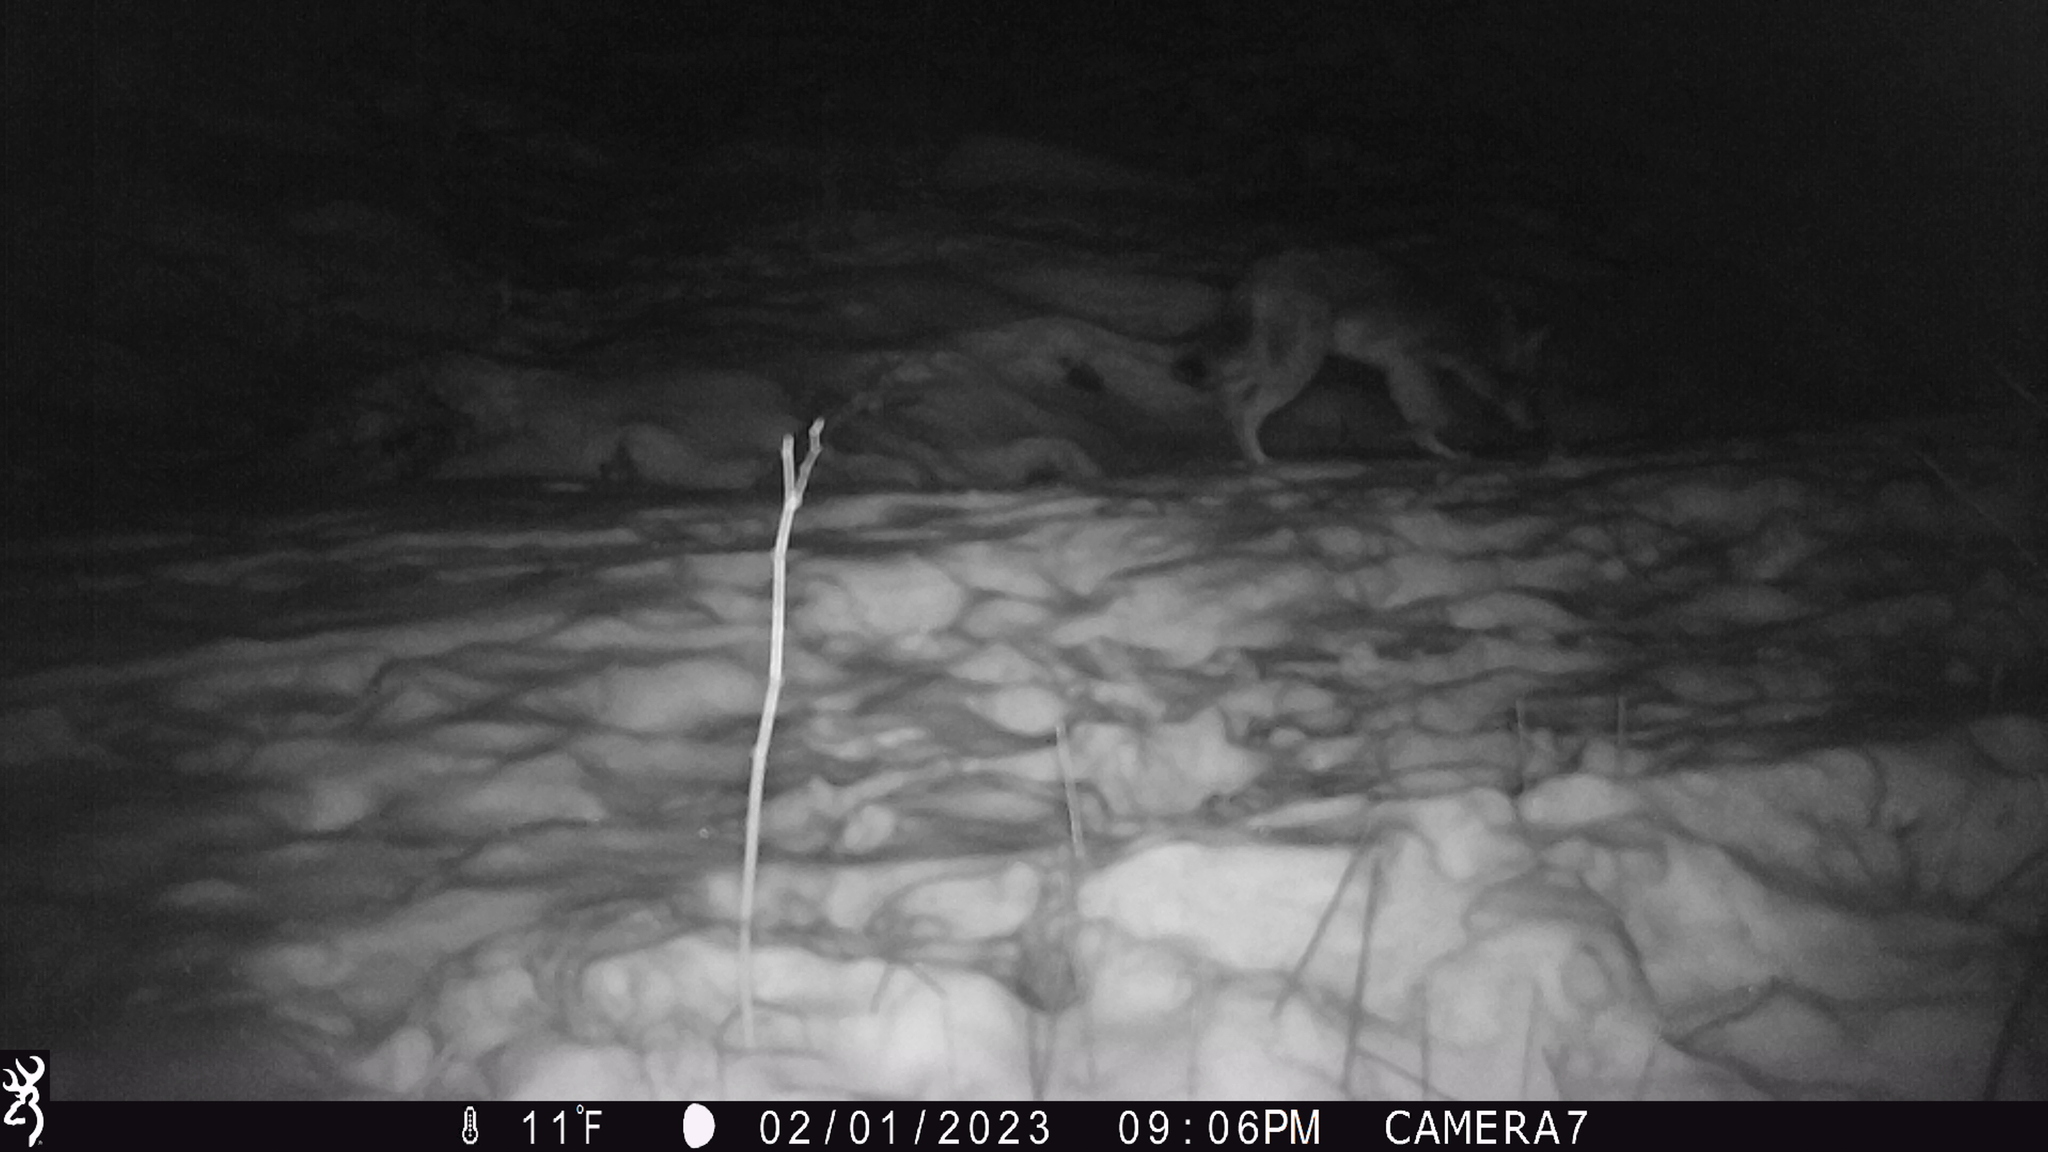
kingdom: Animalia
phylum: Chordata
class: Mammalia
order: Carnivora
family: Canidae
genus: Canis
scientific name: Canis latrans
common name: Coyote
